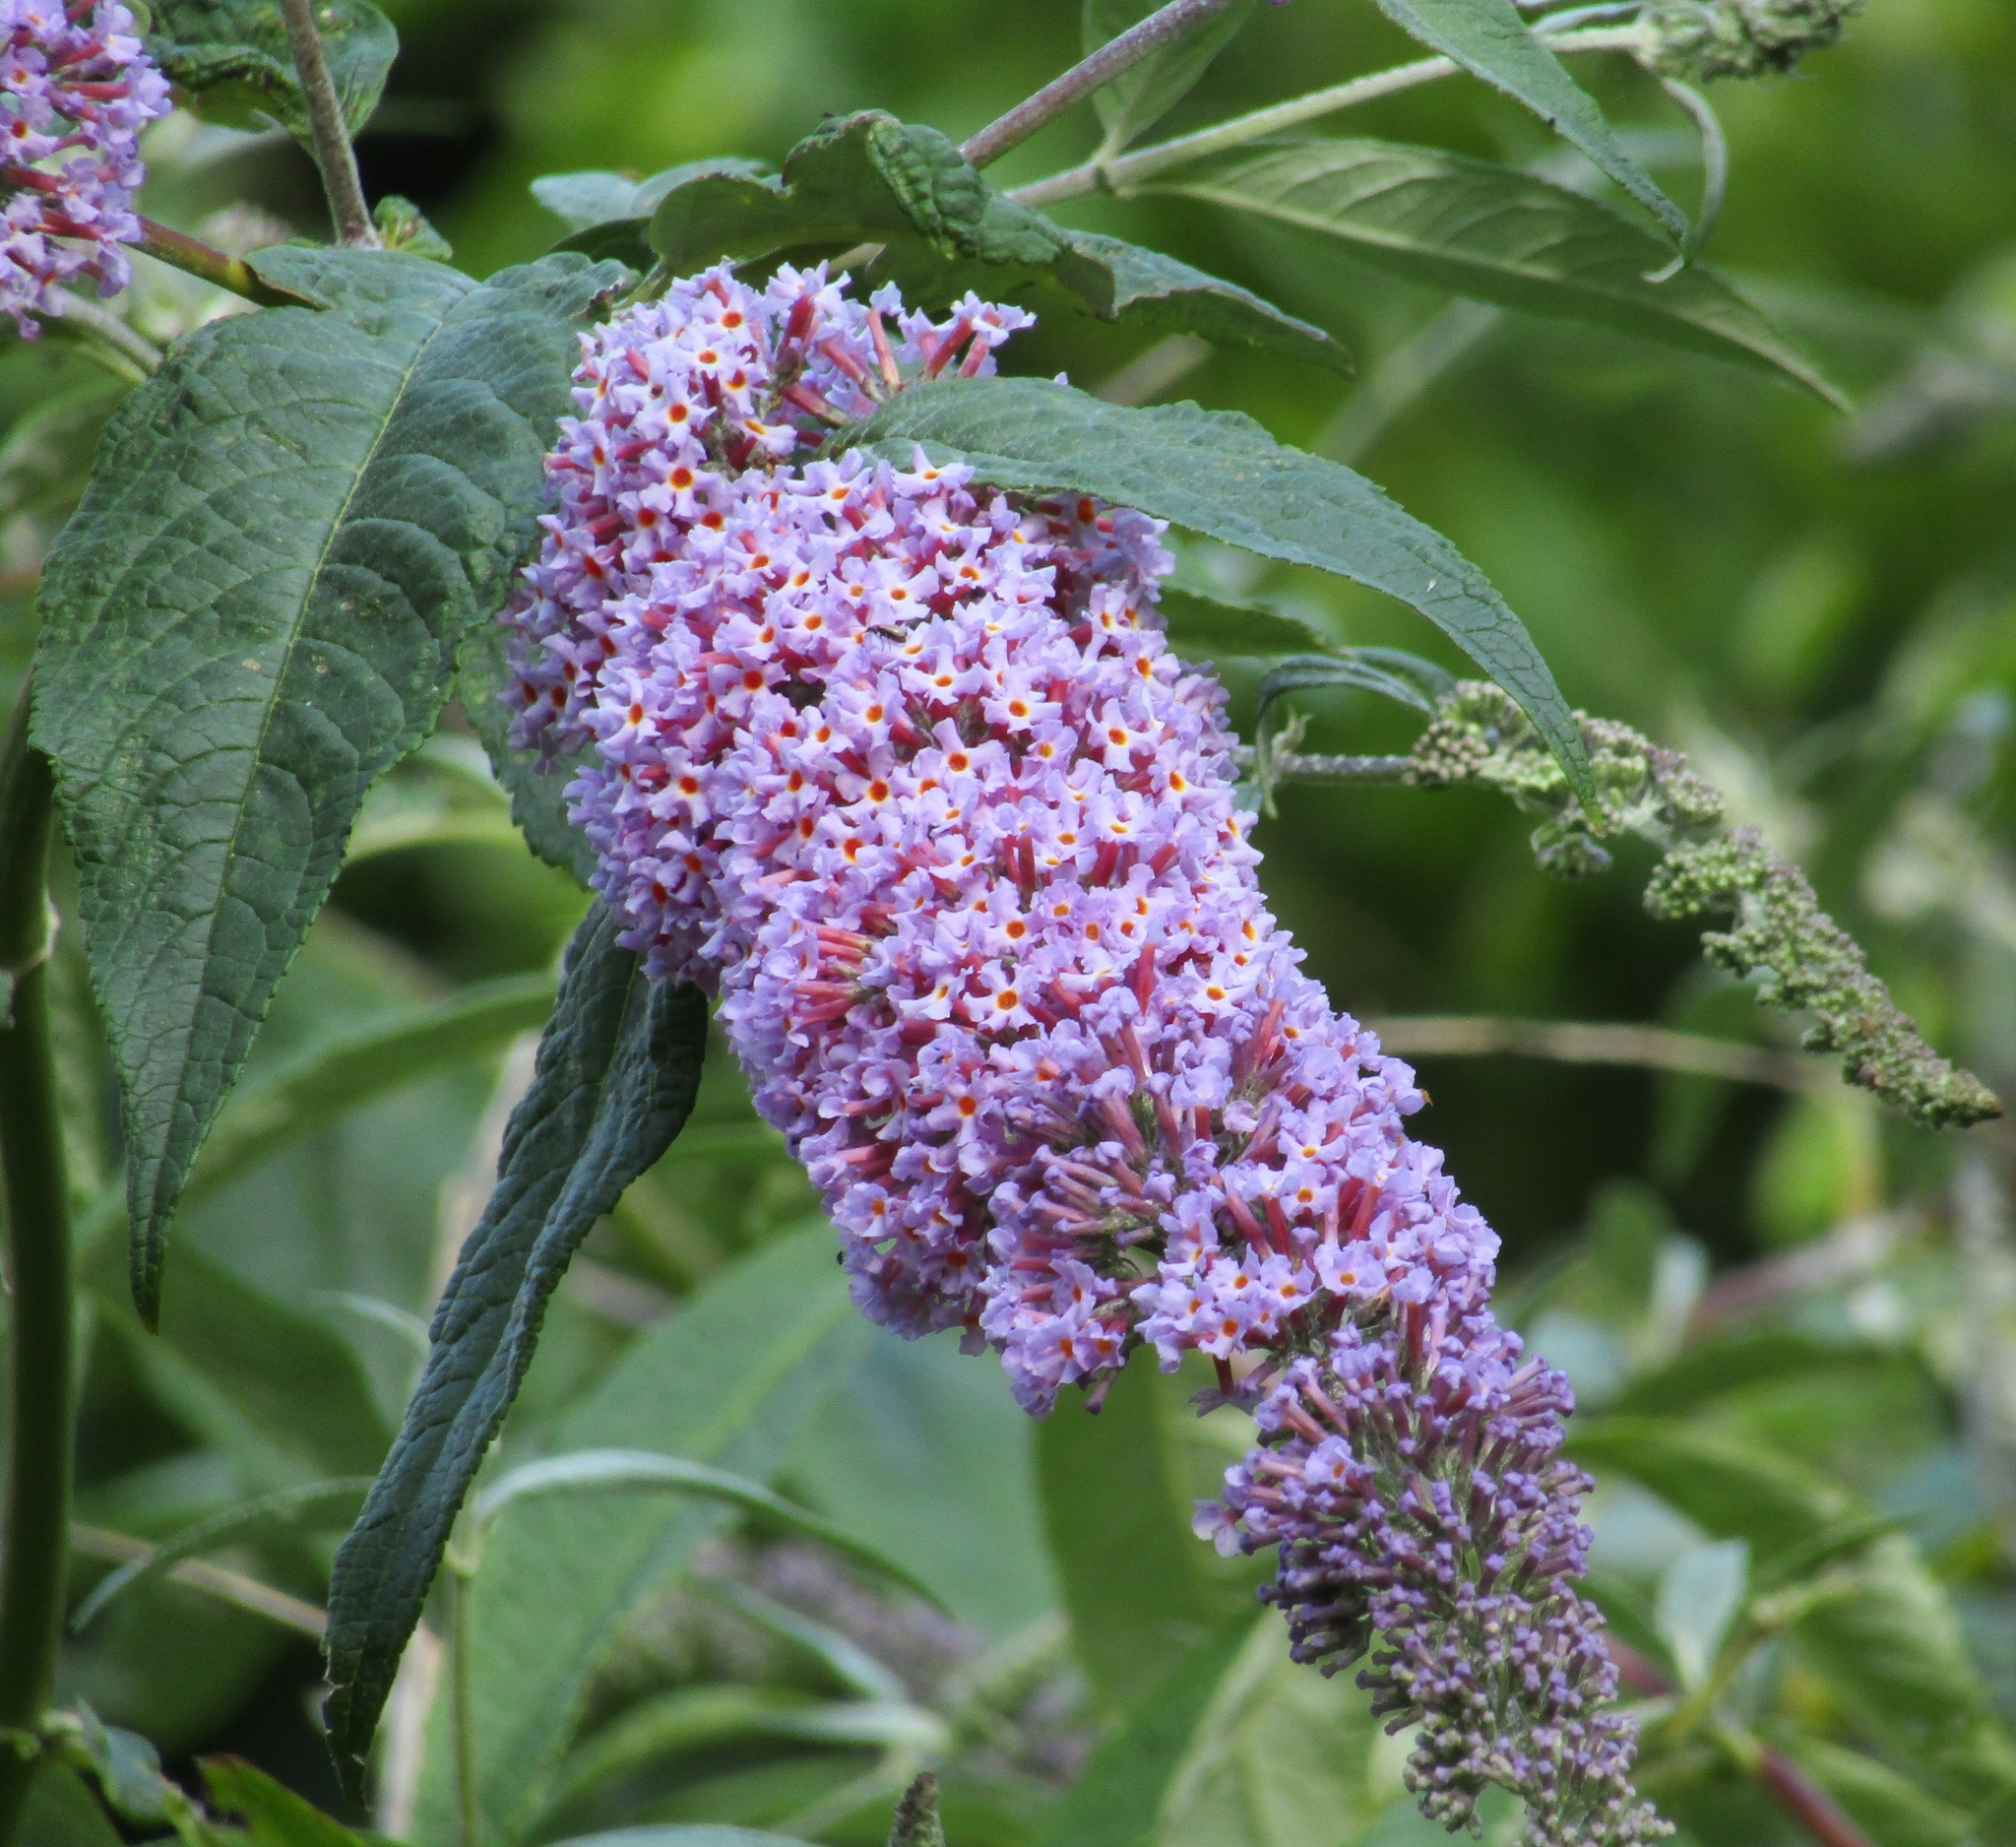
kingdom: Plantae
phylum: Tracheophyta
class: Magnoliopsida
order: Lamiales
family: Scrophulariaceae
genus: Buddleja
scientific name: Buddleja davidii
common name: Butterfly-bush
